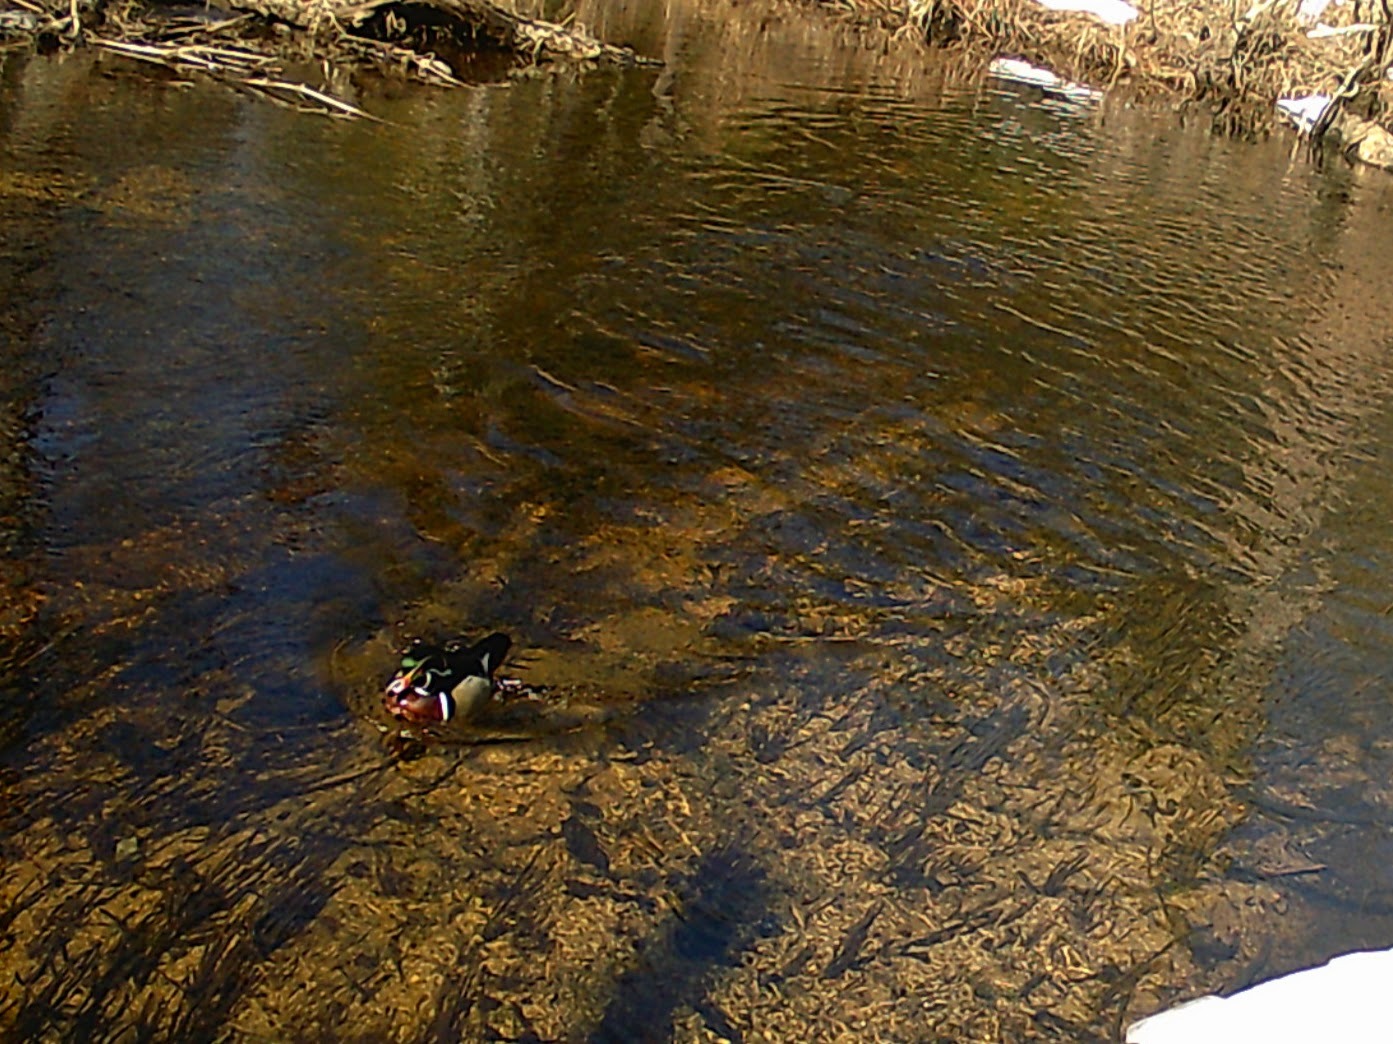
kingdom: Animalia
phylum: Chordata
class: Aves
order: Anseriformes
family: Anatidae
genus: Aix
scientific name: Aix sponsa
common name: Wood duck
